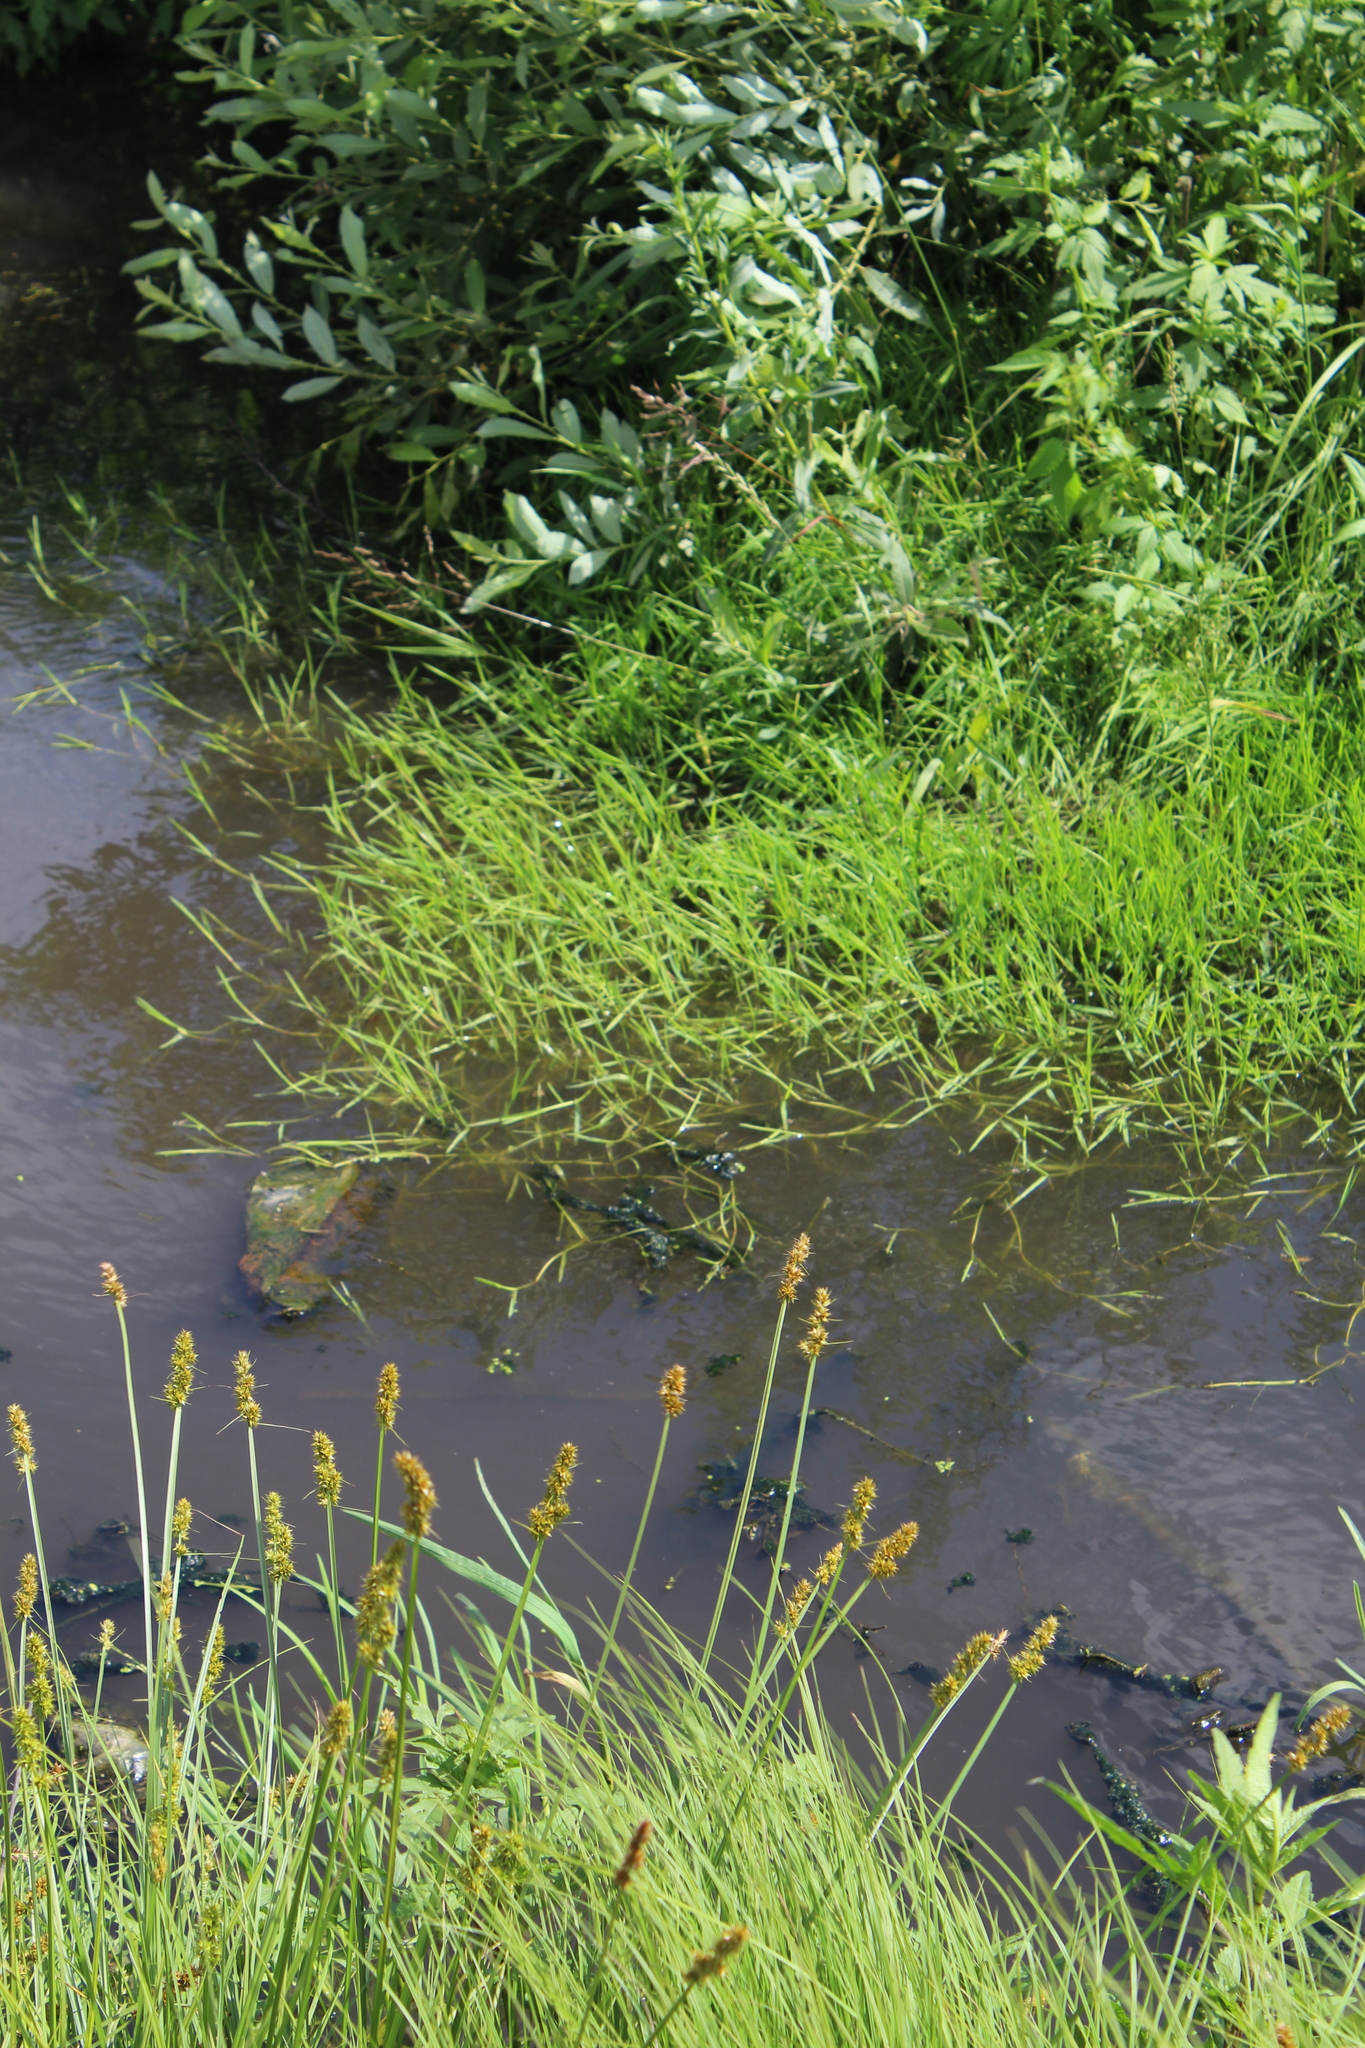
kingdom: Plantae
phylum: Tracheophyta
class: Liliopsida
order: Poales
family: Poaceae
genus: Agrostis
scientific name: Agrostis stolonifera
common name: Creeping bentgrass
